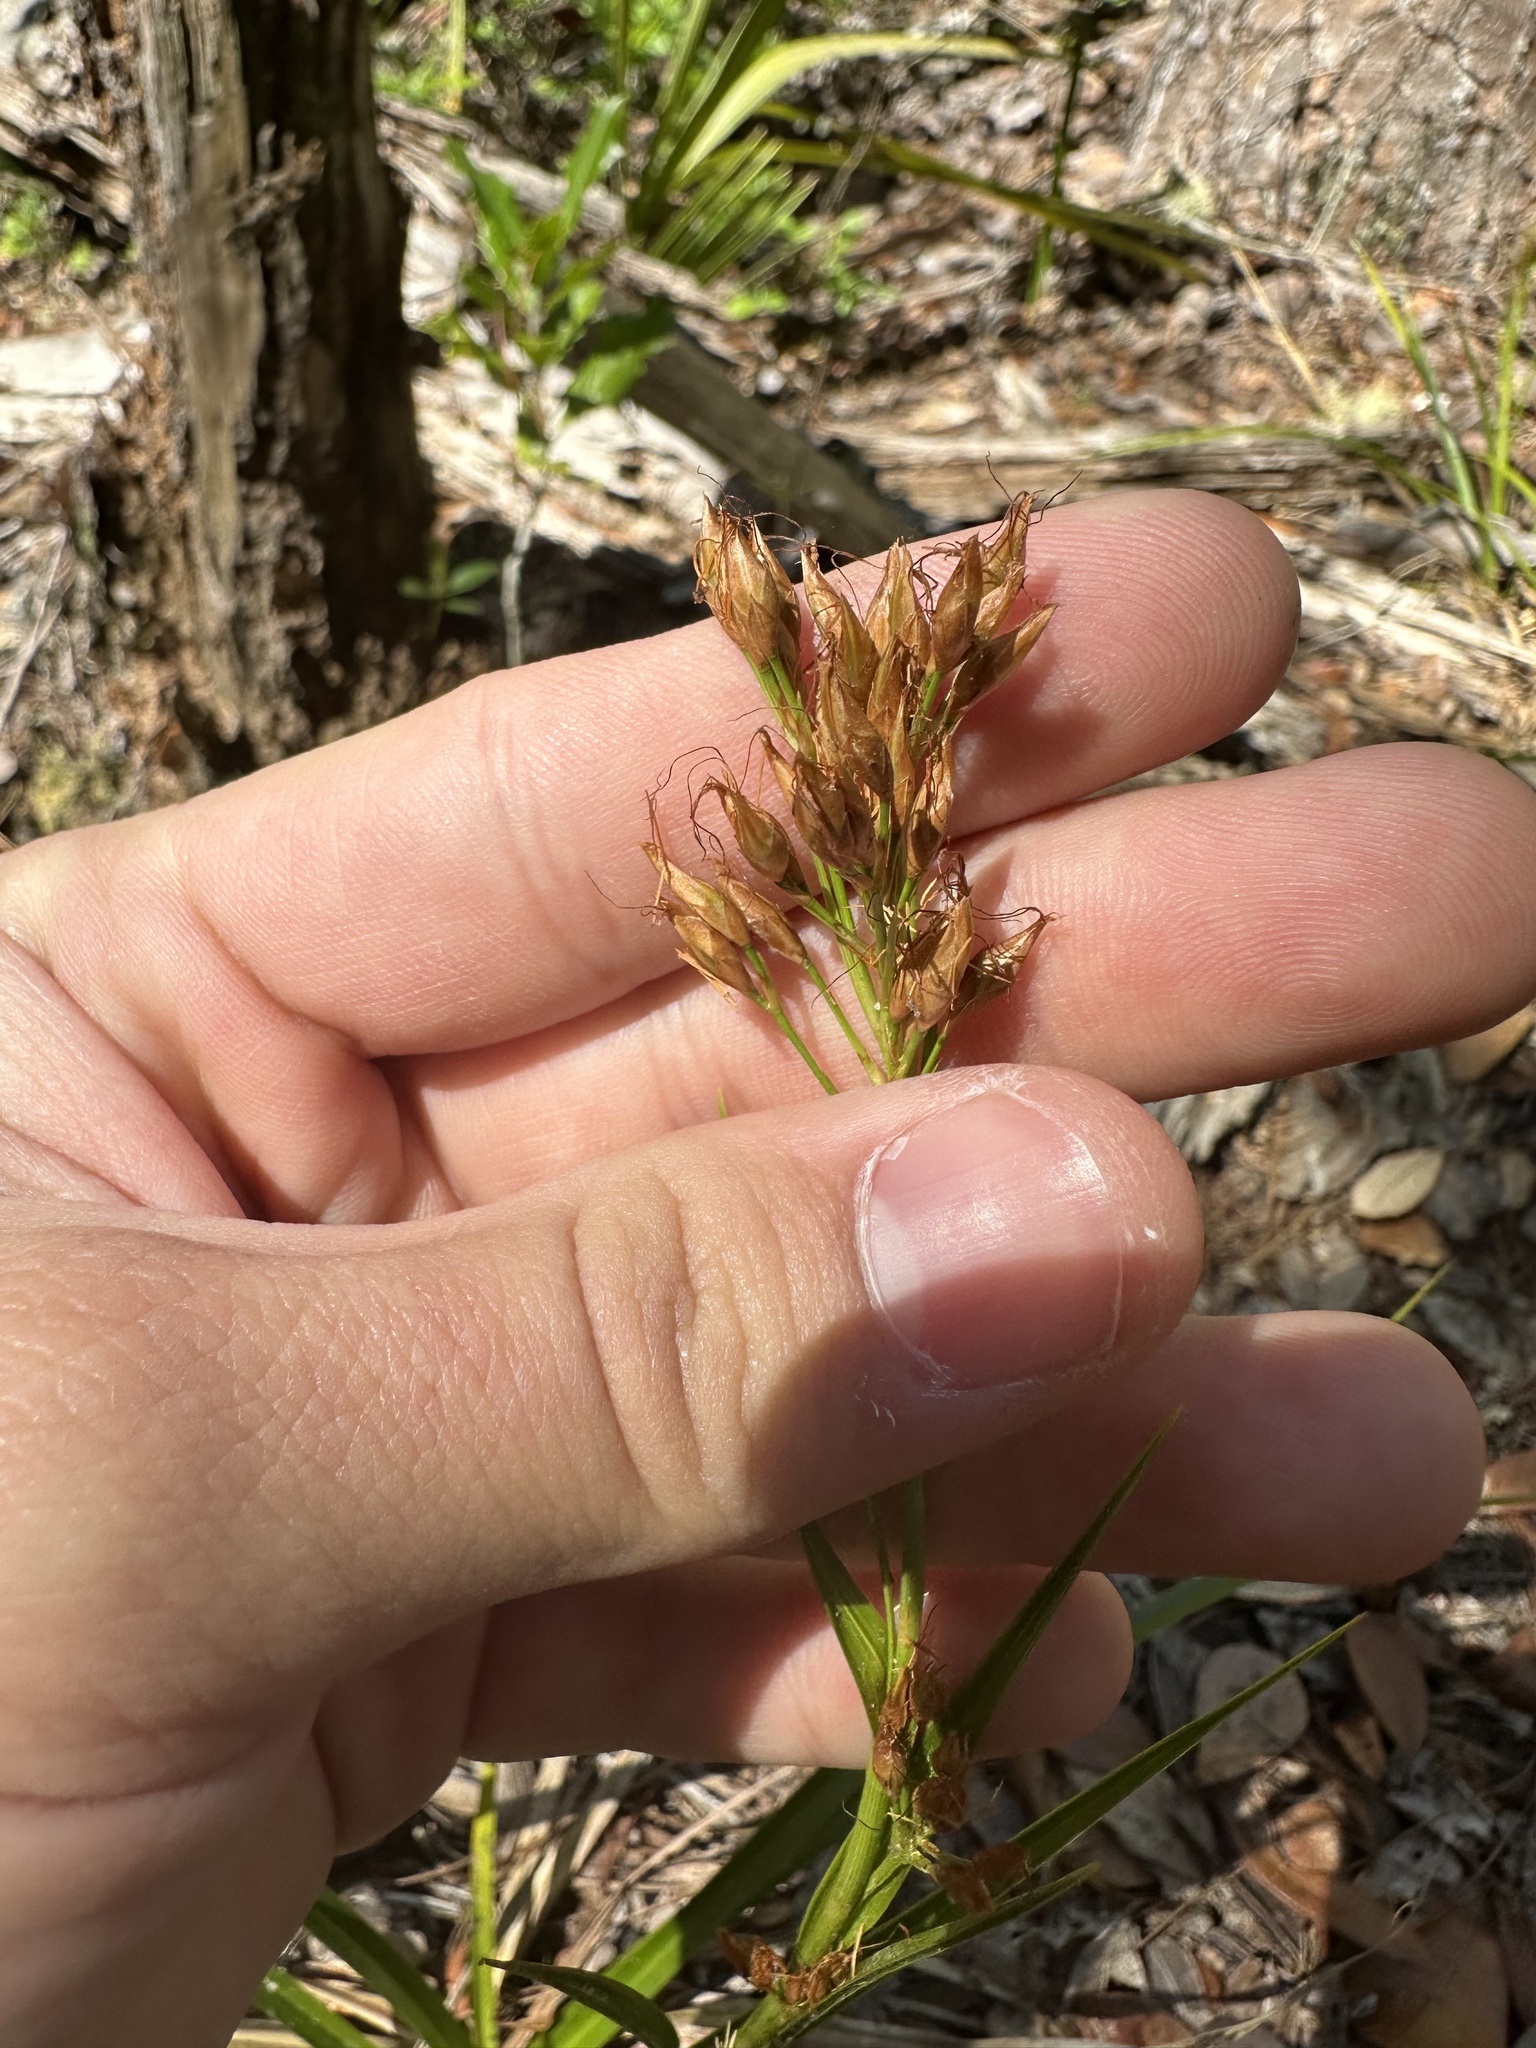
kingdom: Plantae
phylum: Tracheophyta
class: Liliopsida
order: Poales
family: Cyperaceae
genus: Rhynchospora
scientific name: Rhynchospora megalocarpa
